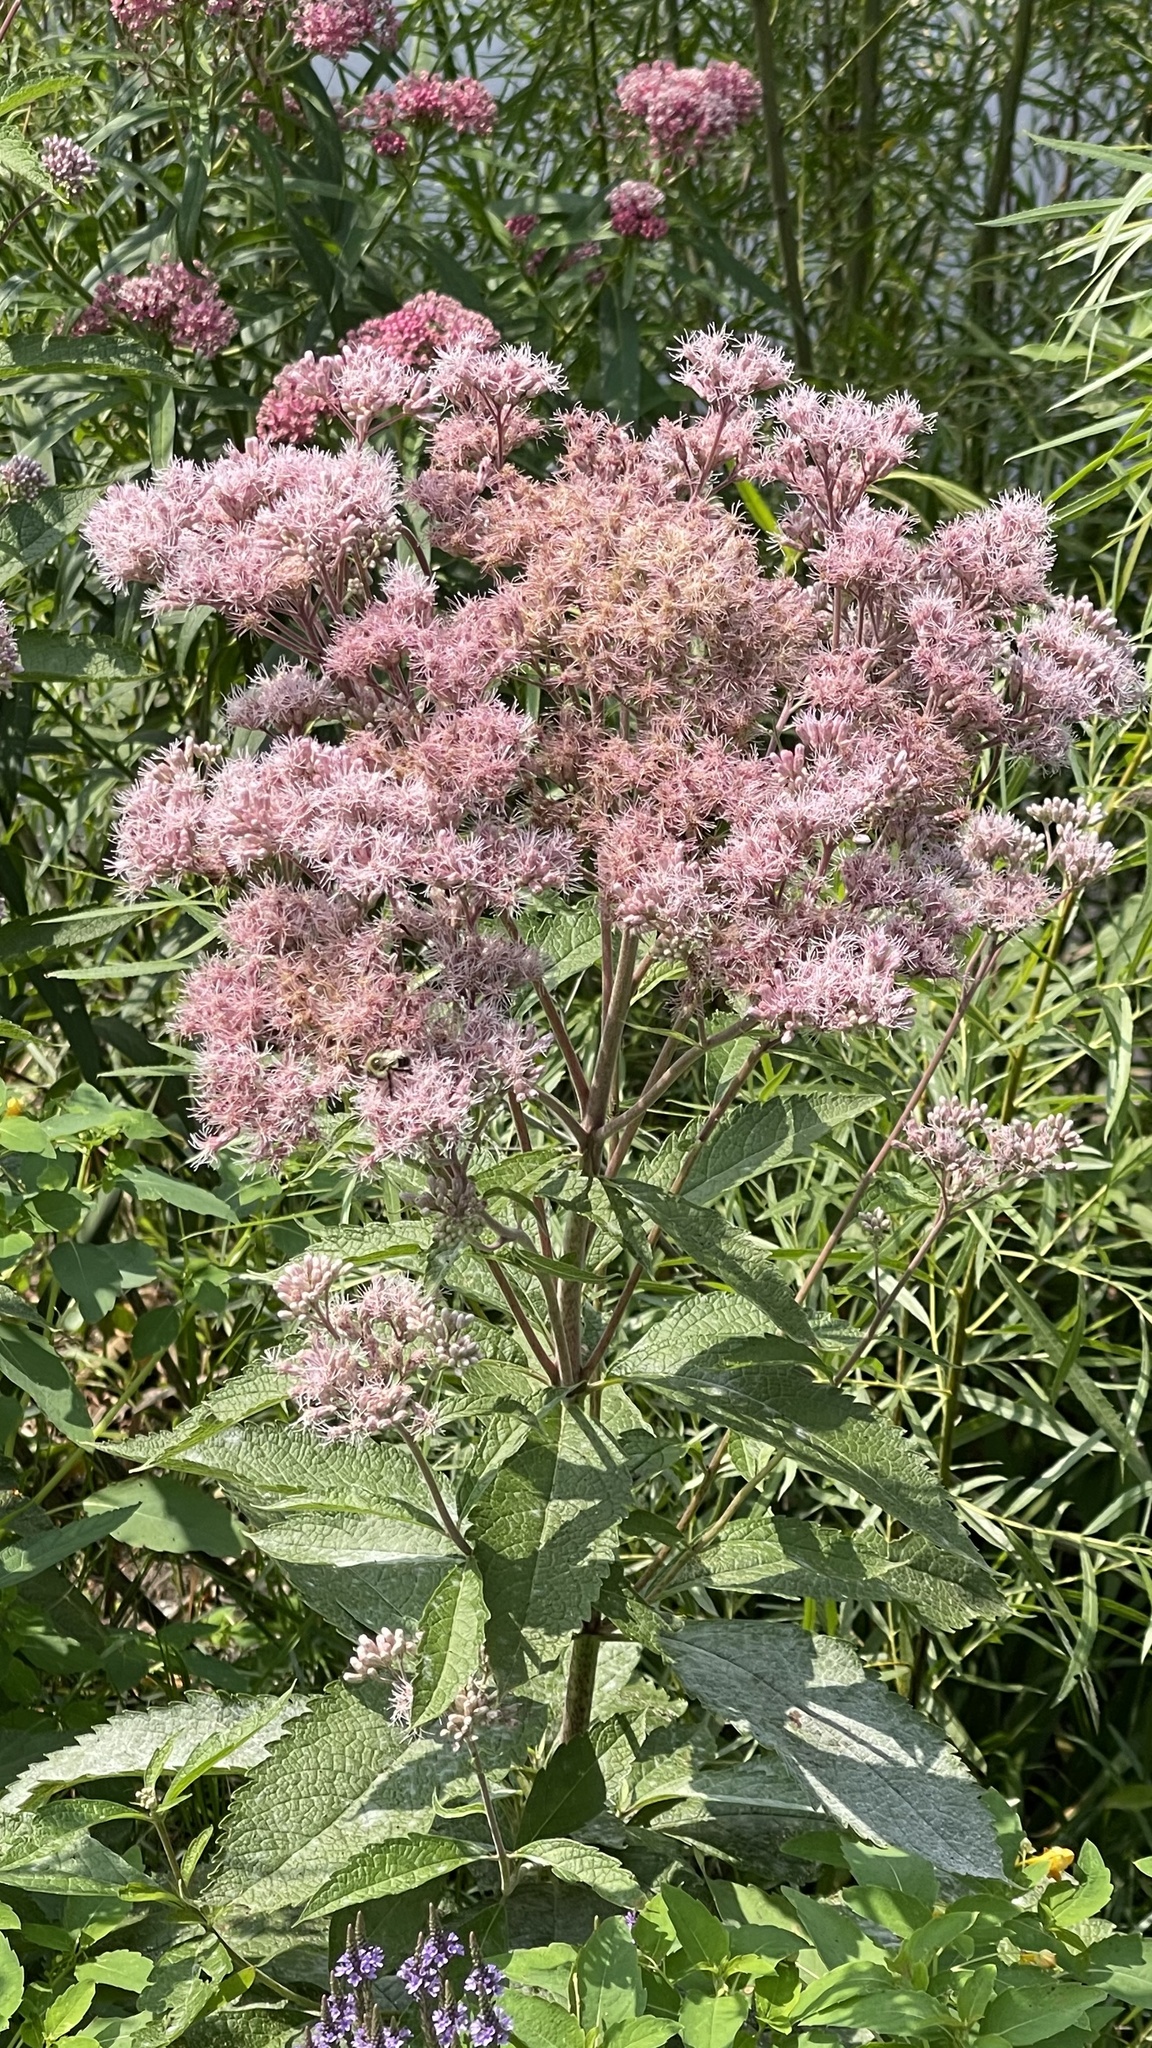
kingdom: Plantae
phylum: Tracheophyta
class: Magnoliopsida
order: Asterales
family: Asteraceae
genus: Eutrochium
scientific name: Eutrochium maculatum
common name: Spotted joe pye weed
